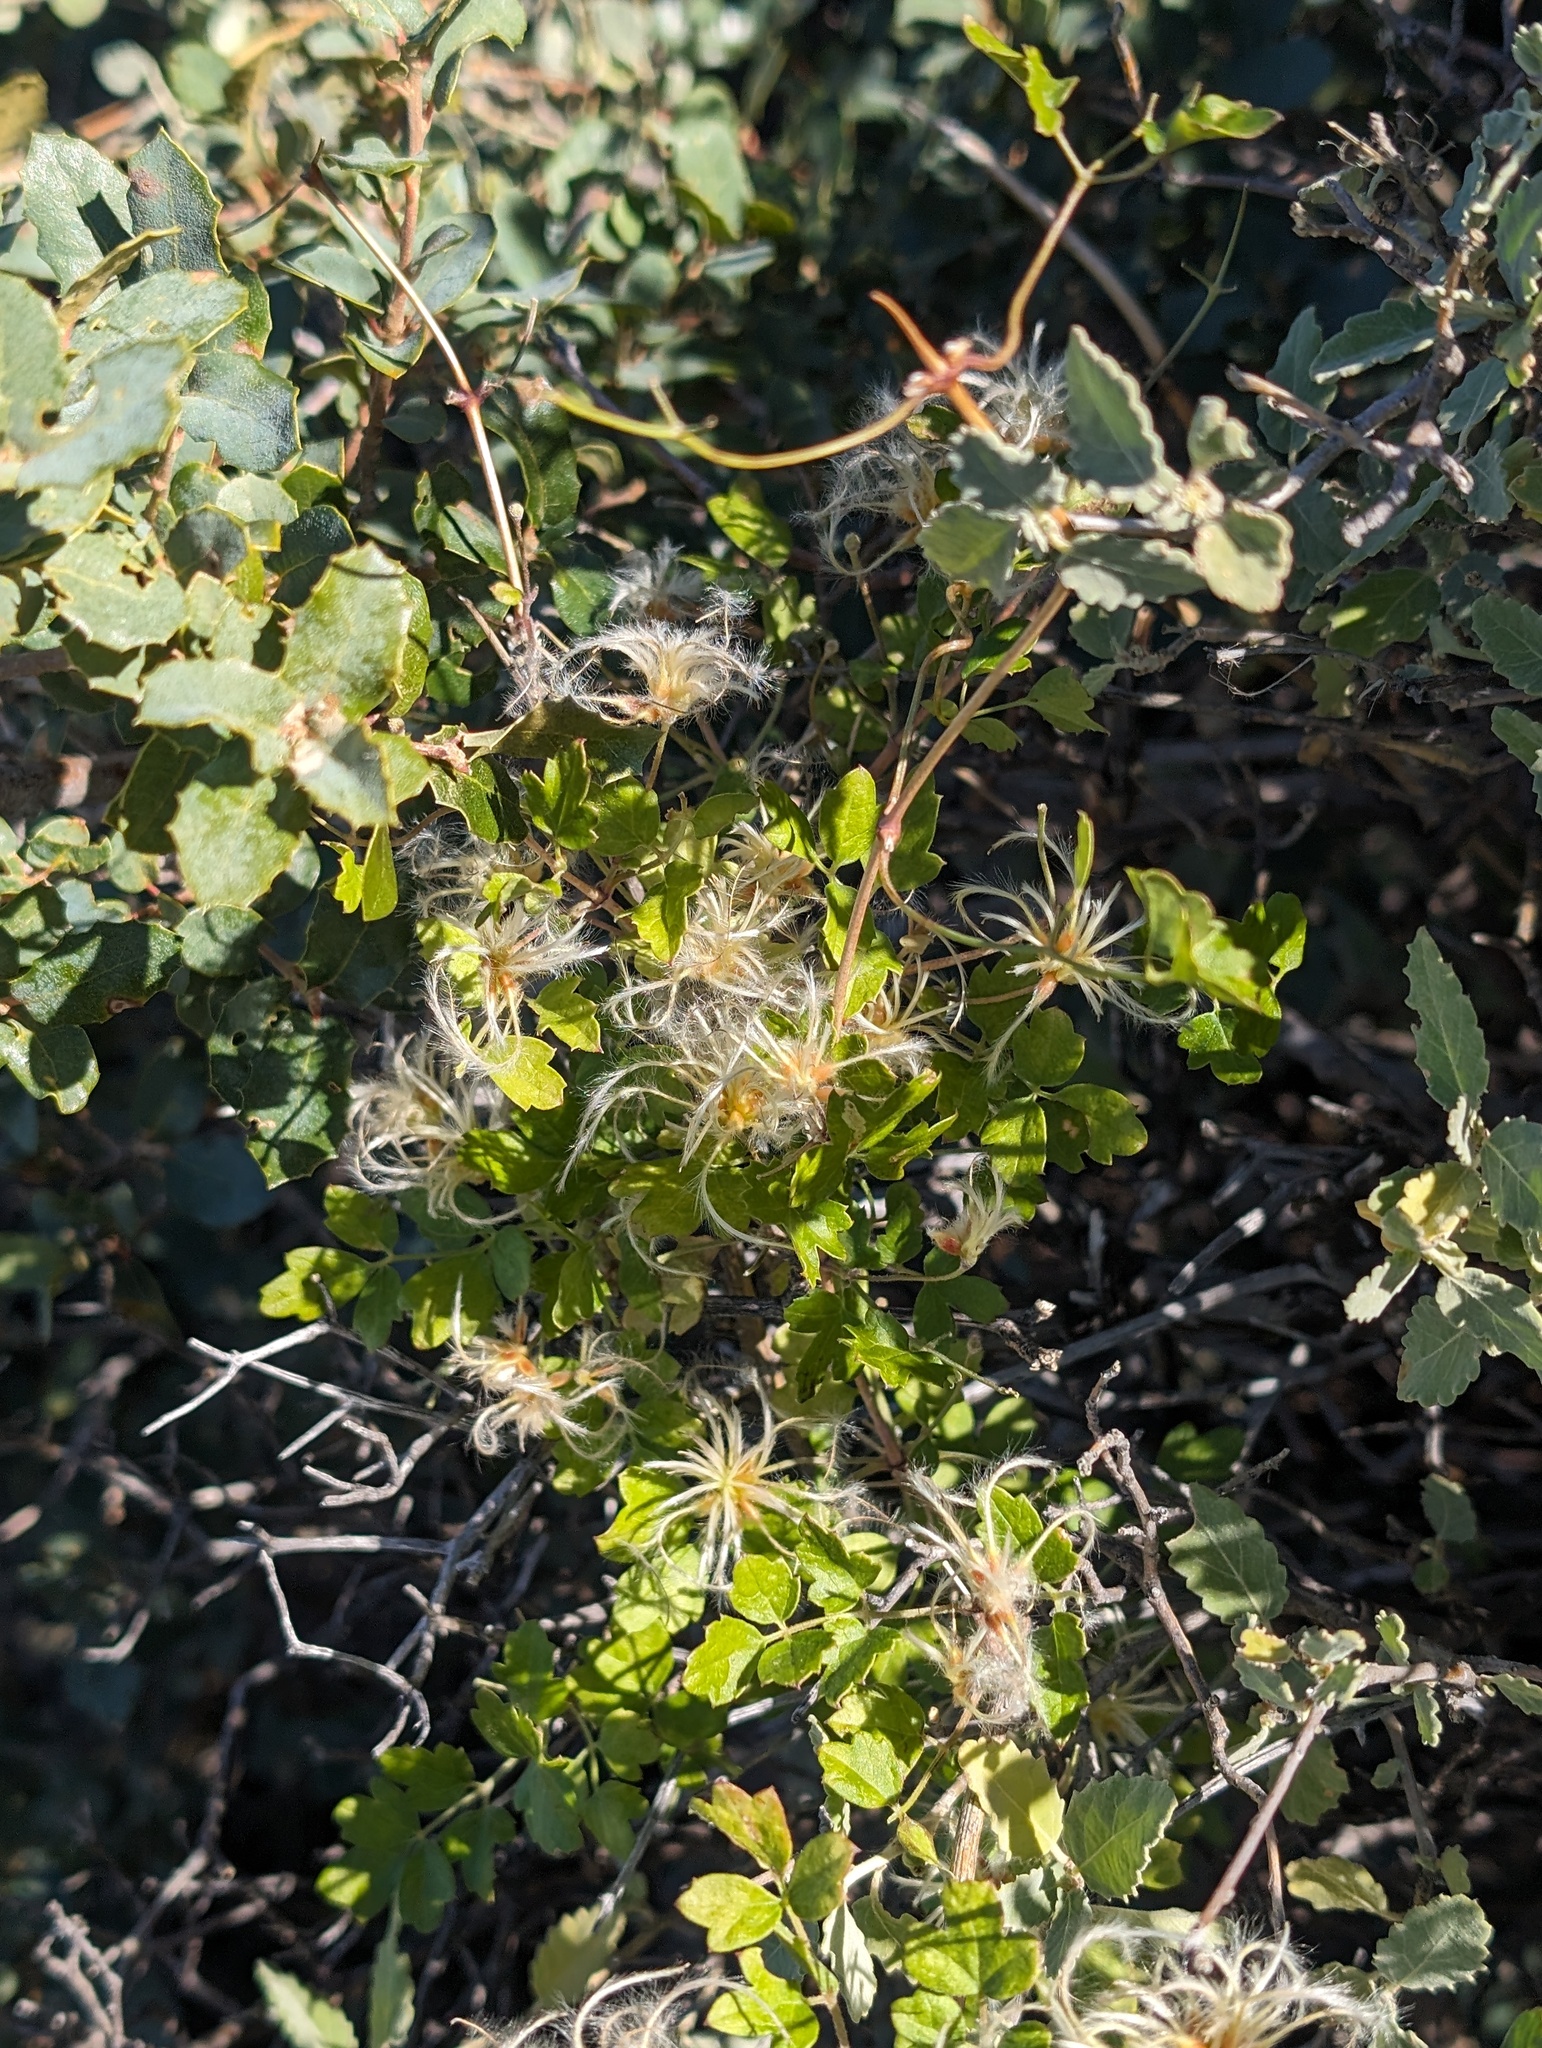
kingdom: Plantae
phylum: Tracheophyta
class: Magnoliopsida
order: Ranunculales
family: Ranunculaceae
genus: Clematis
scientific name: Clematis pauciflora
